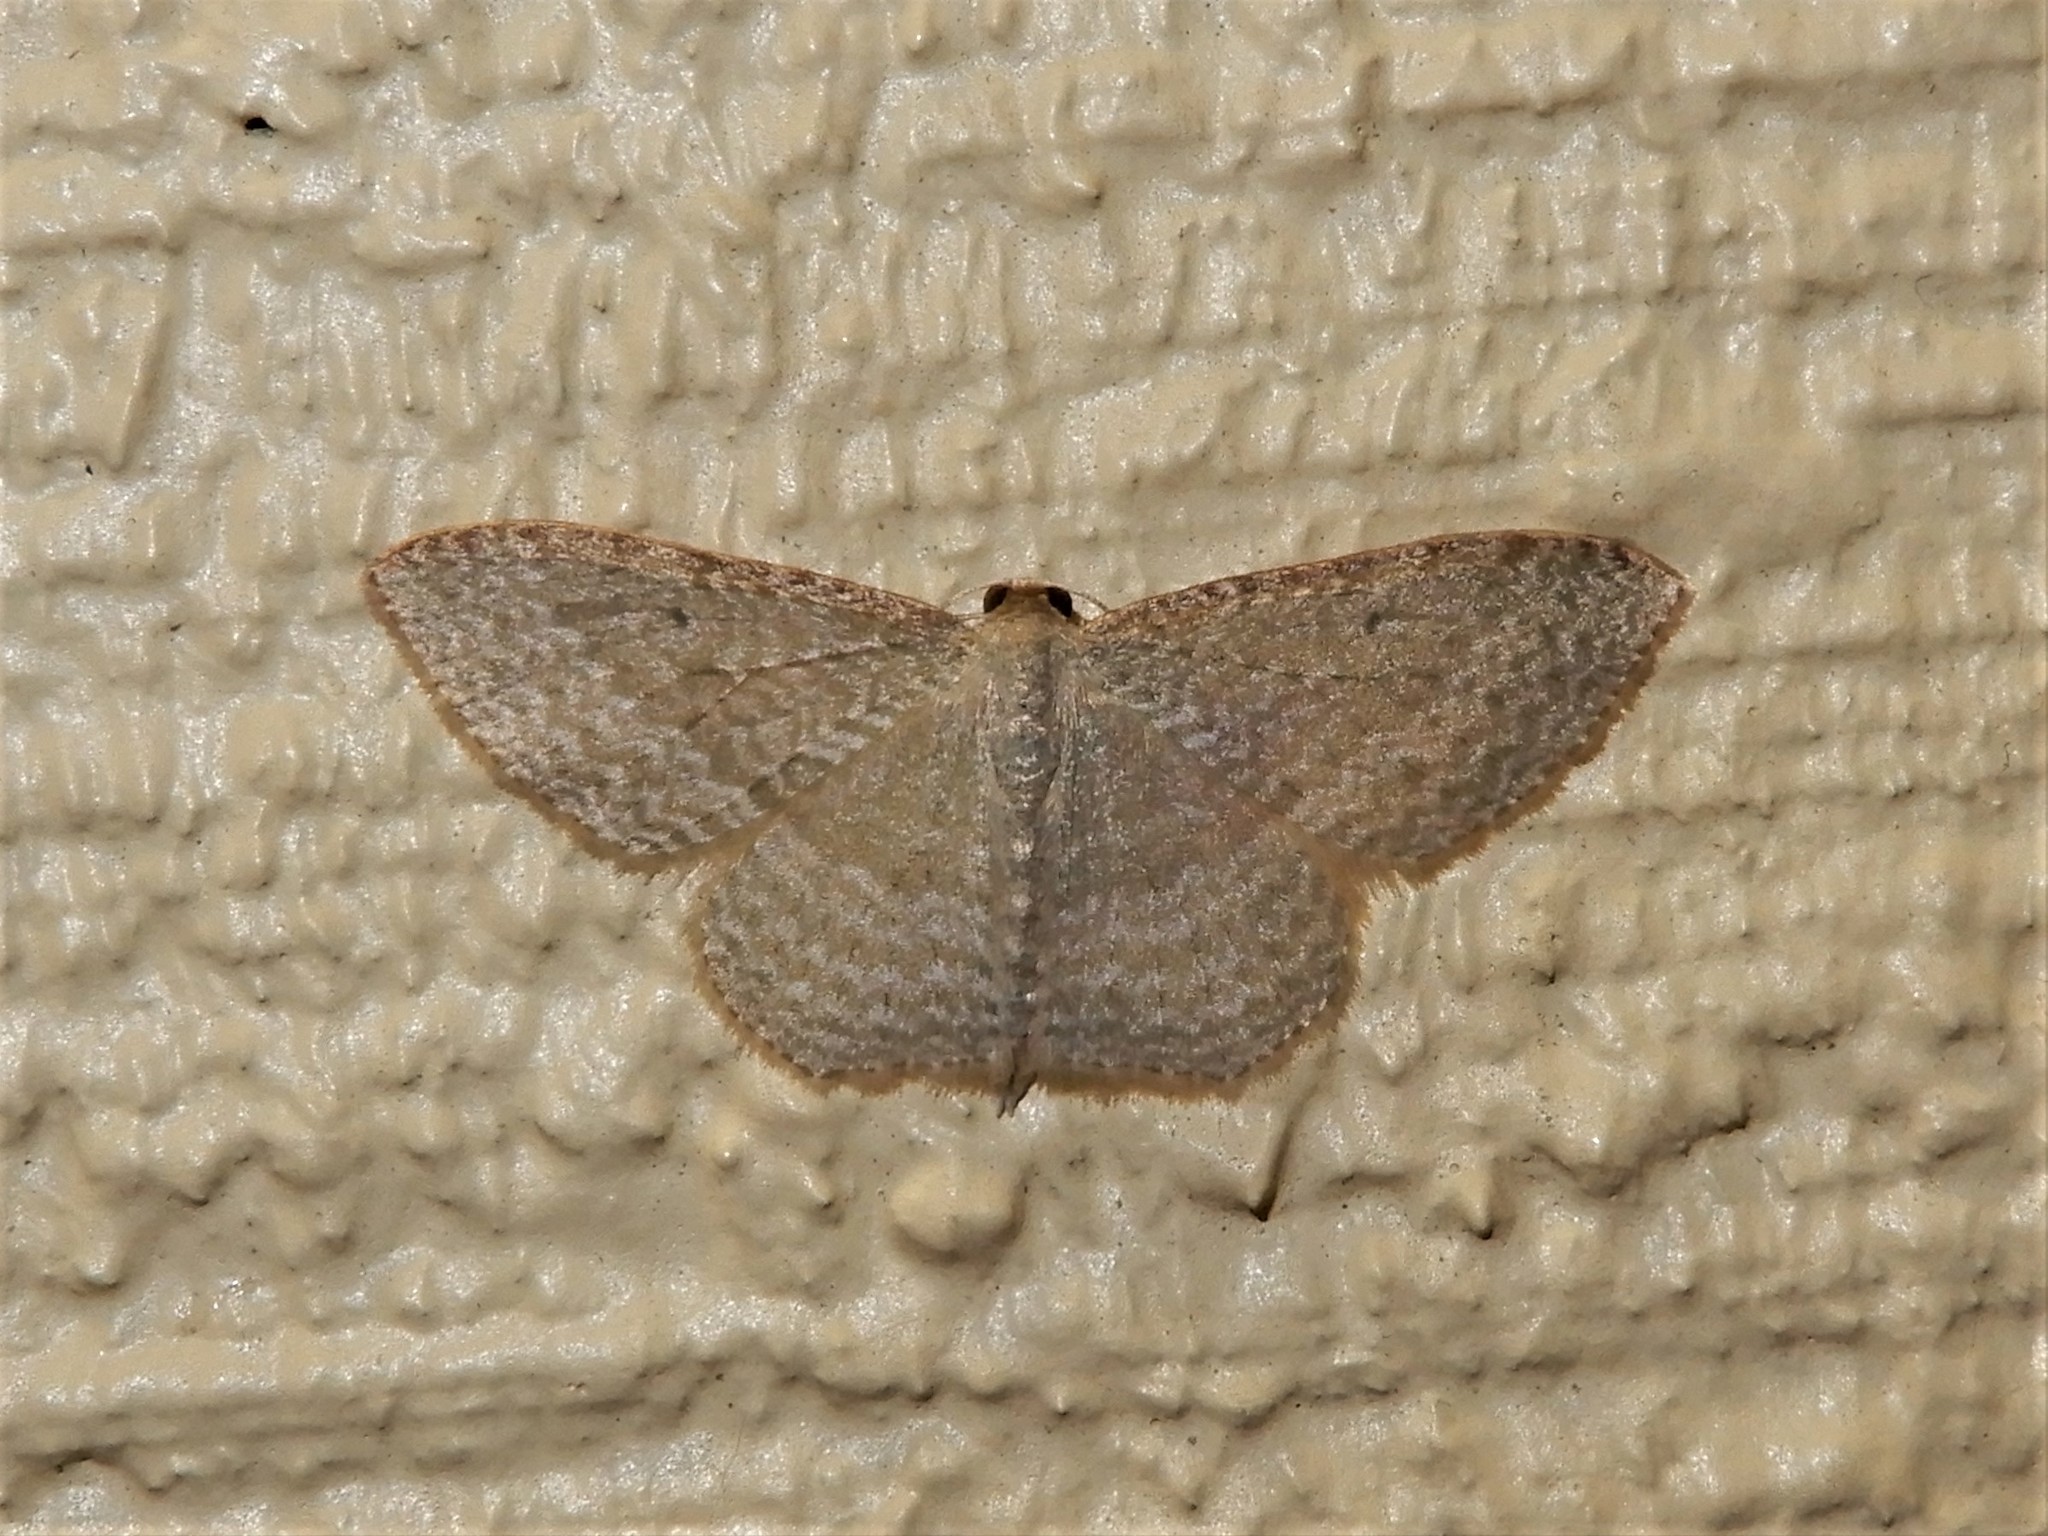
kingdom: Animalia
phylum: Arthropoda
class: Insecta
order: Lepidoptera
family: Geometridae
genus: Poecilasthena
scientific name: Poecilasthena pulchraria
